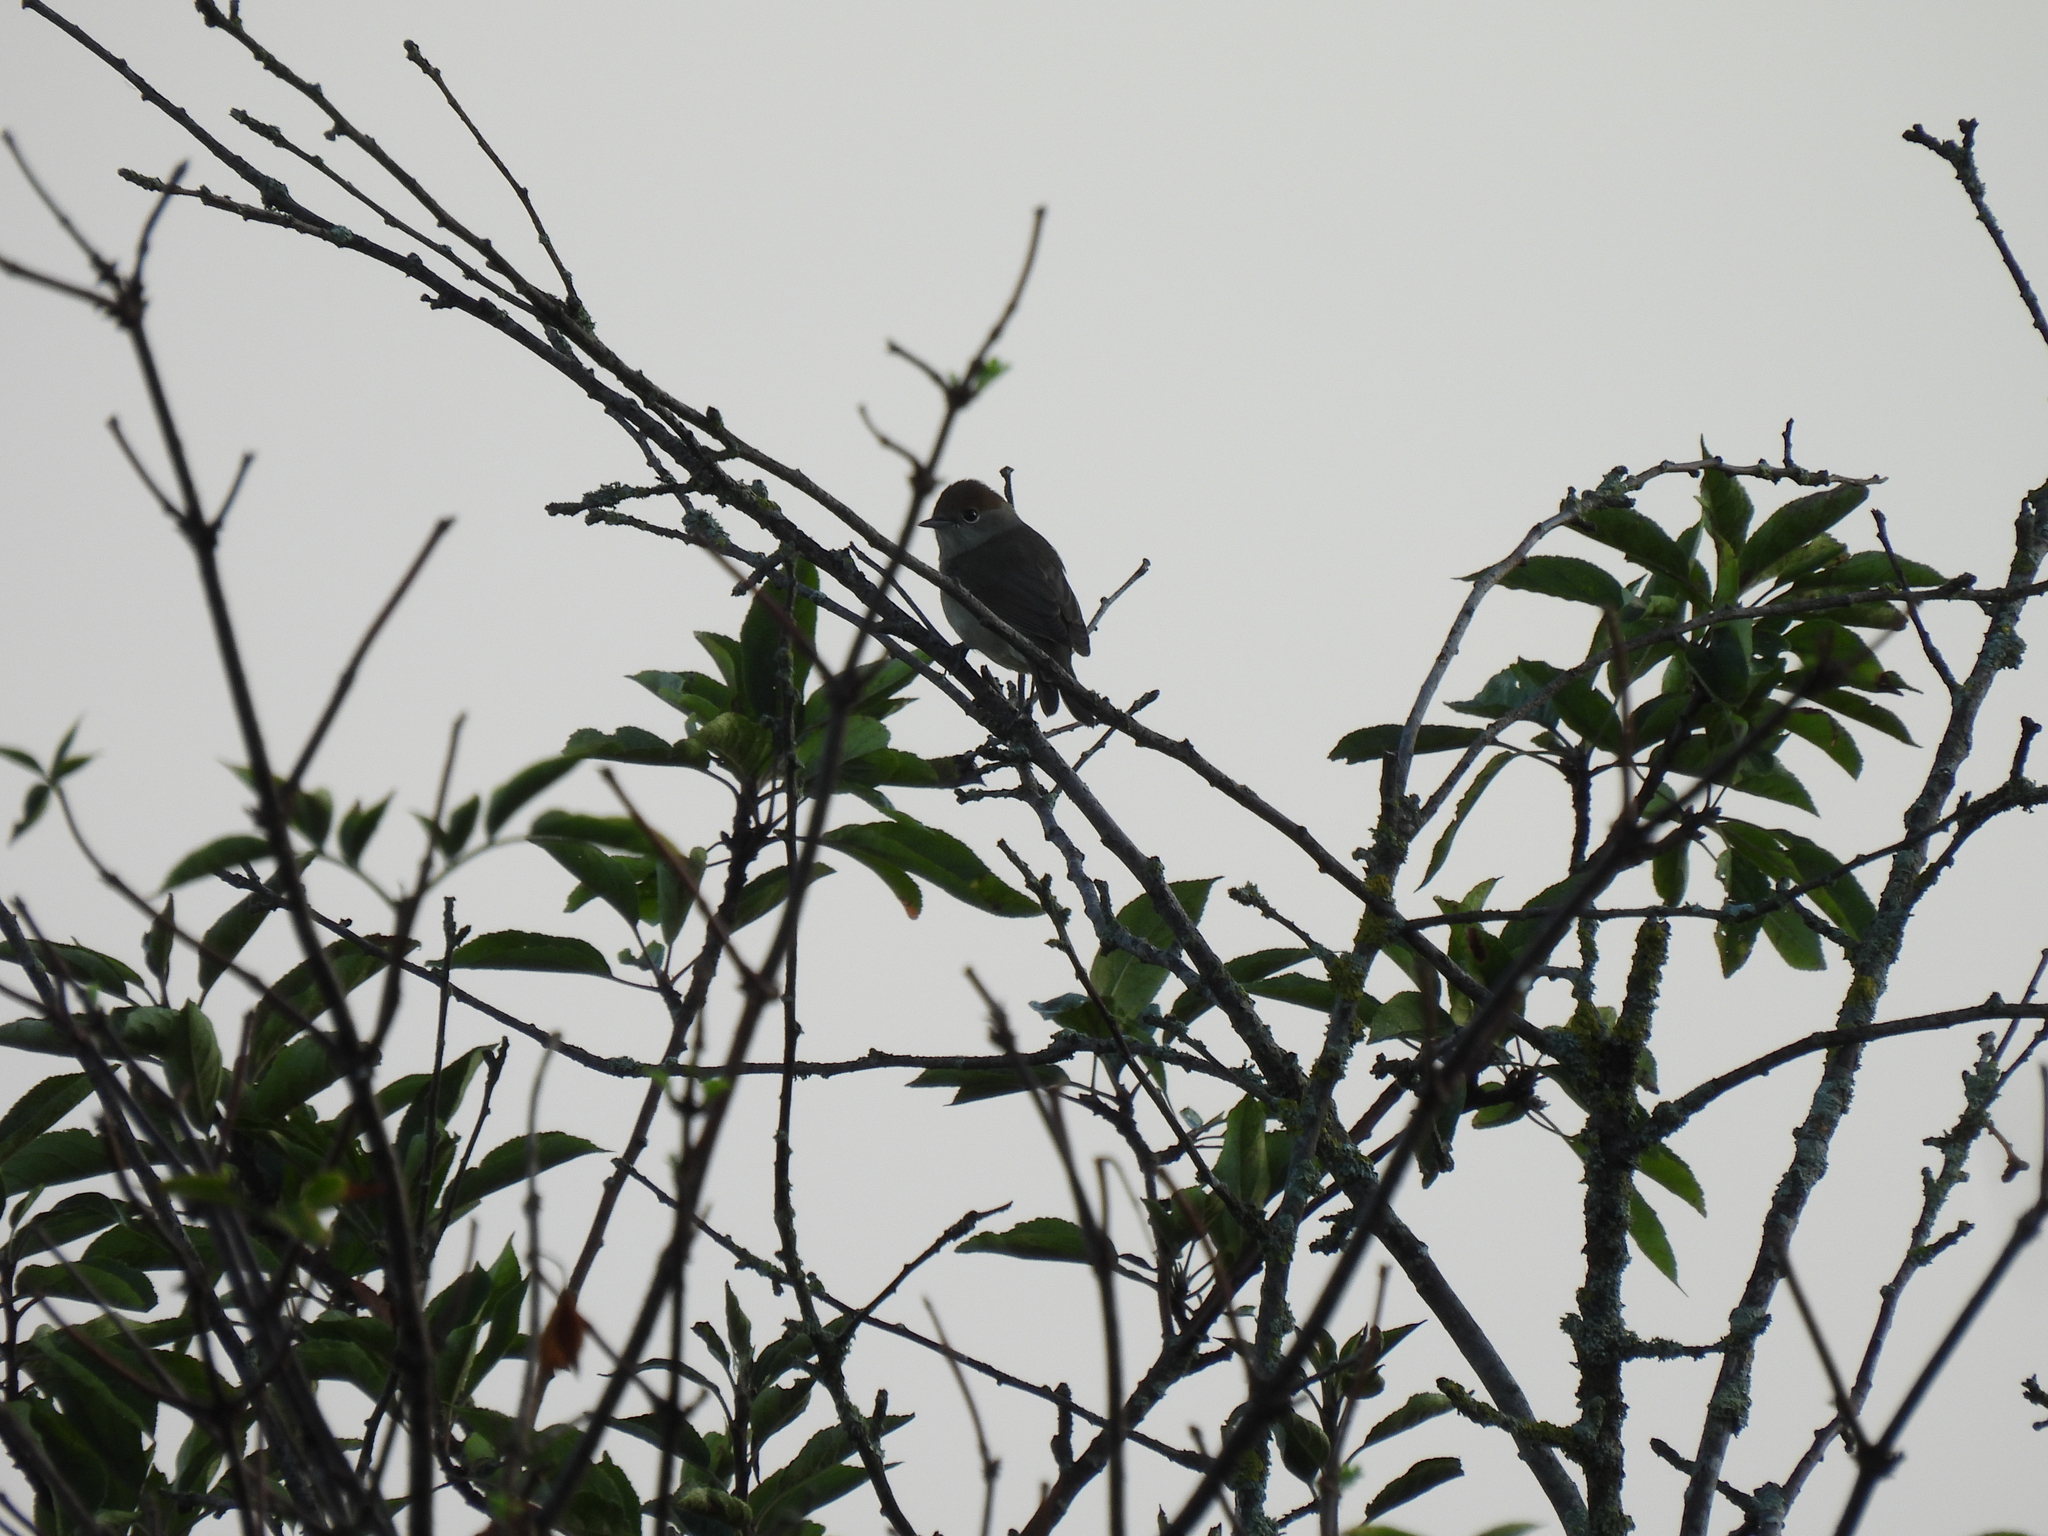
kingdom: Animalia
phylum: Chordata
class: Aves
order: Passeriformes
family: Sylviidae
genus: Sylvia
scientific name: Sylvia atricapilla
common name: Eurasian blackcap
